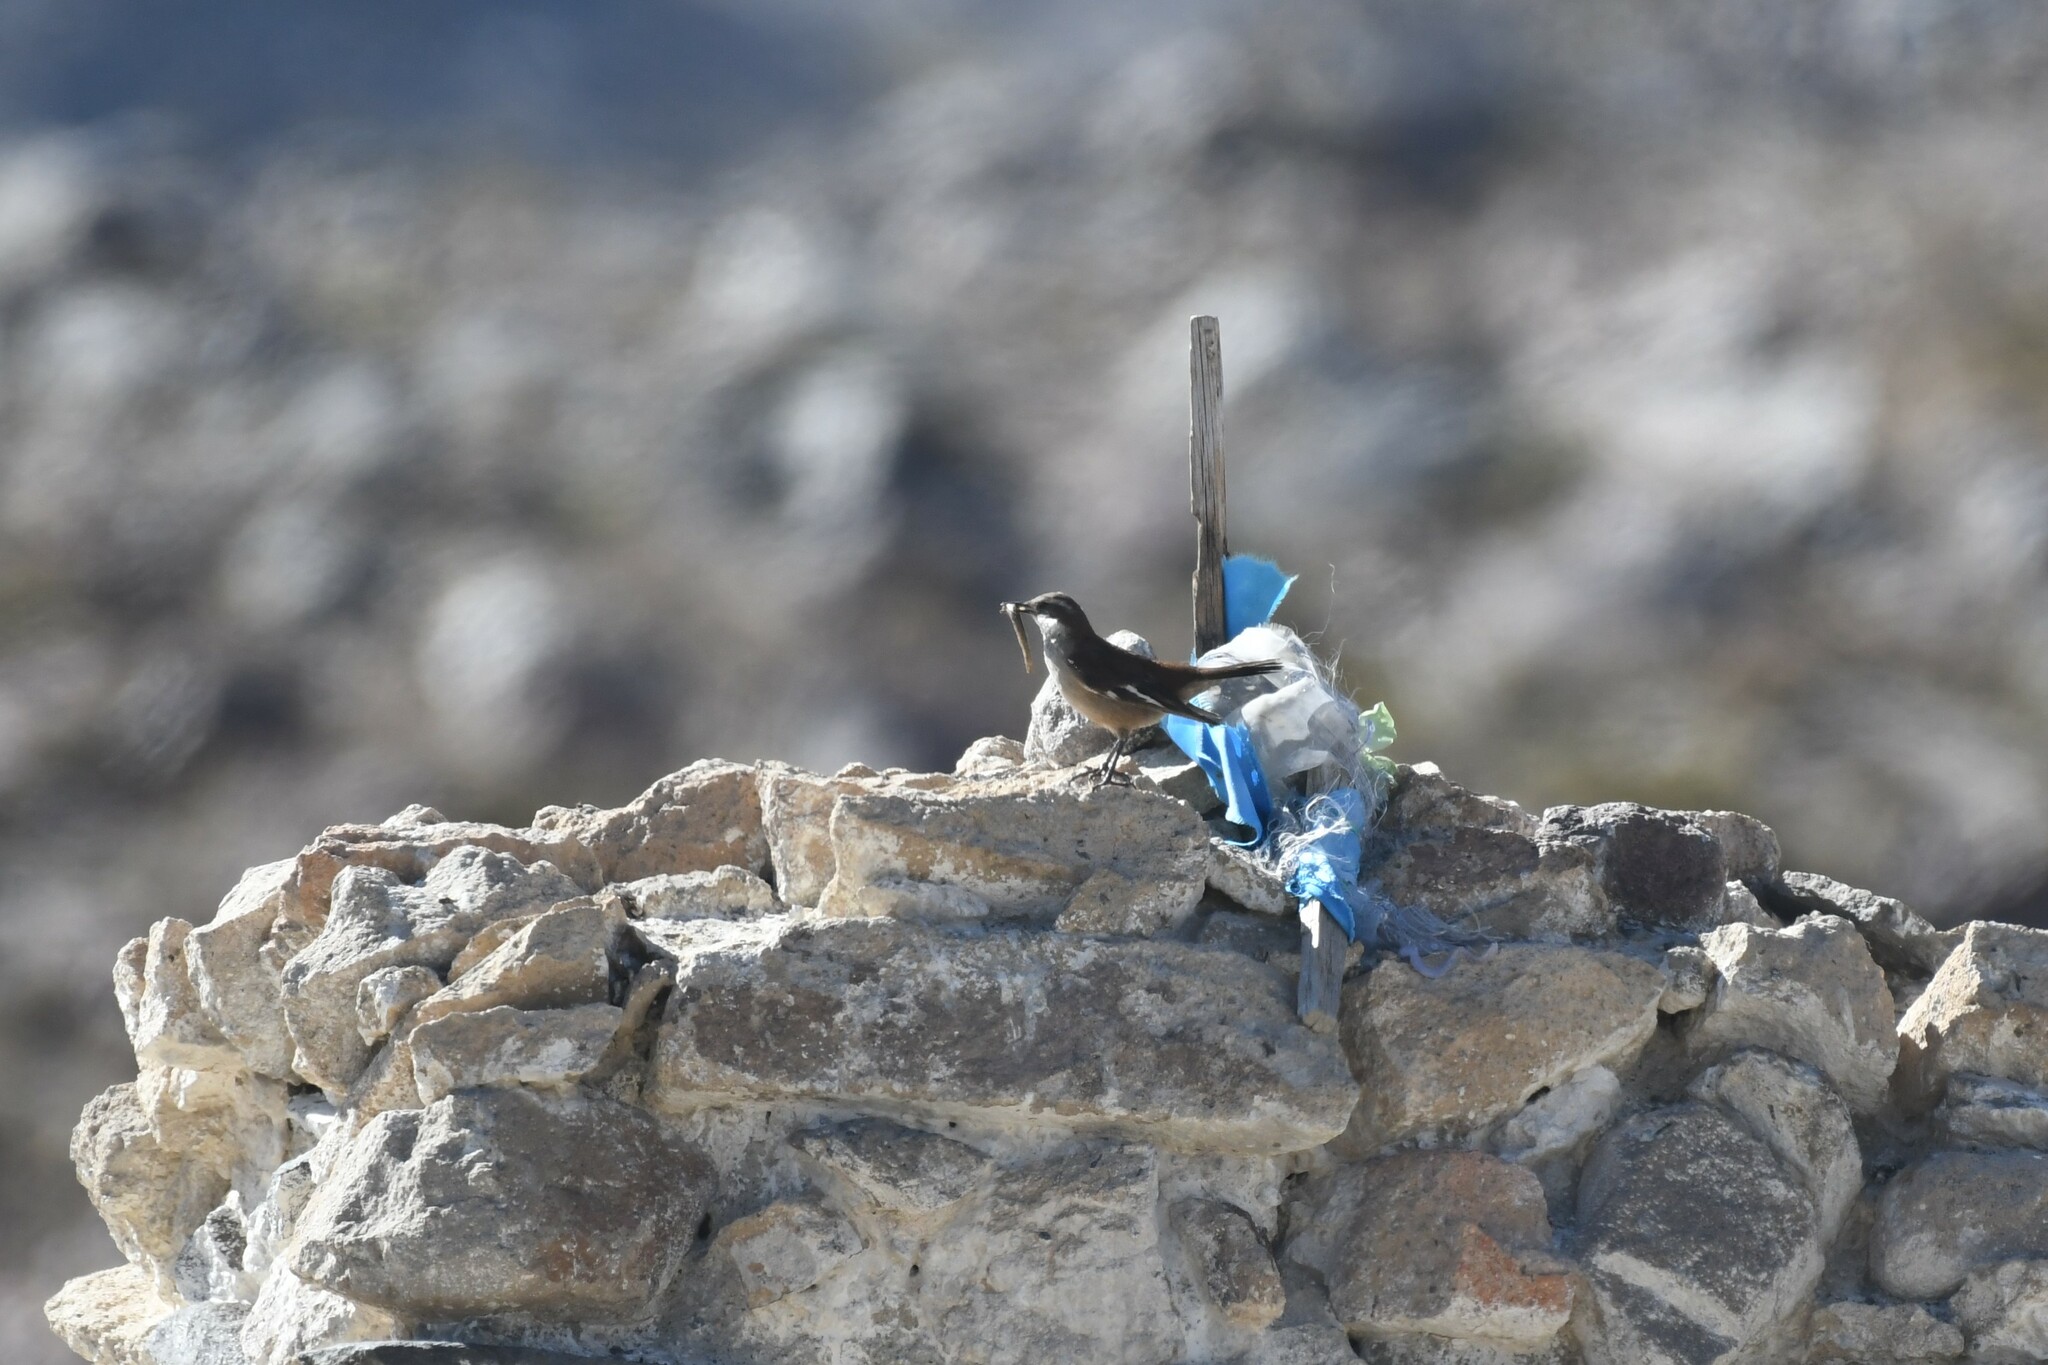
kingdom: Animalia
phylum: Chordata
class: Aves
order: Passeriformes
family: Furnariidae
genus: Cinclodes
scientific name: Cinclodes atacamensis
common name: White-winged cinclodes
